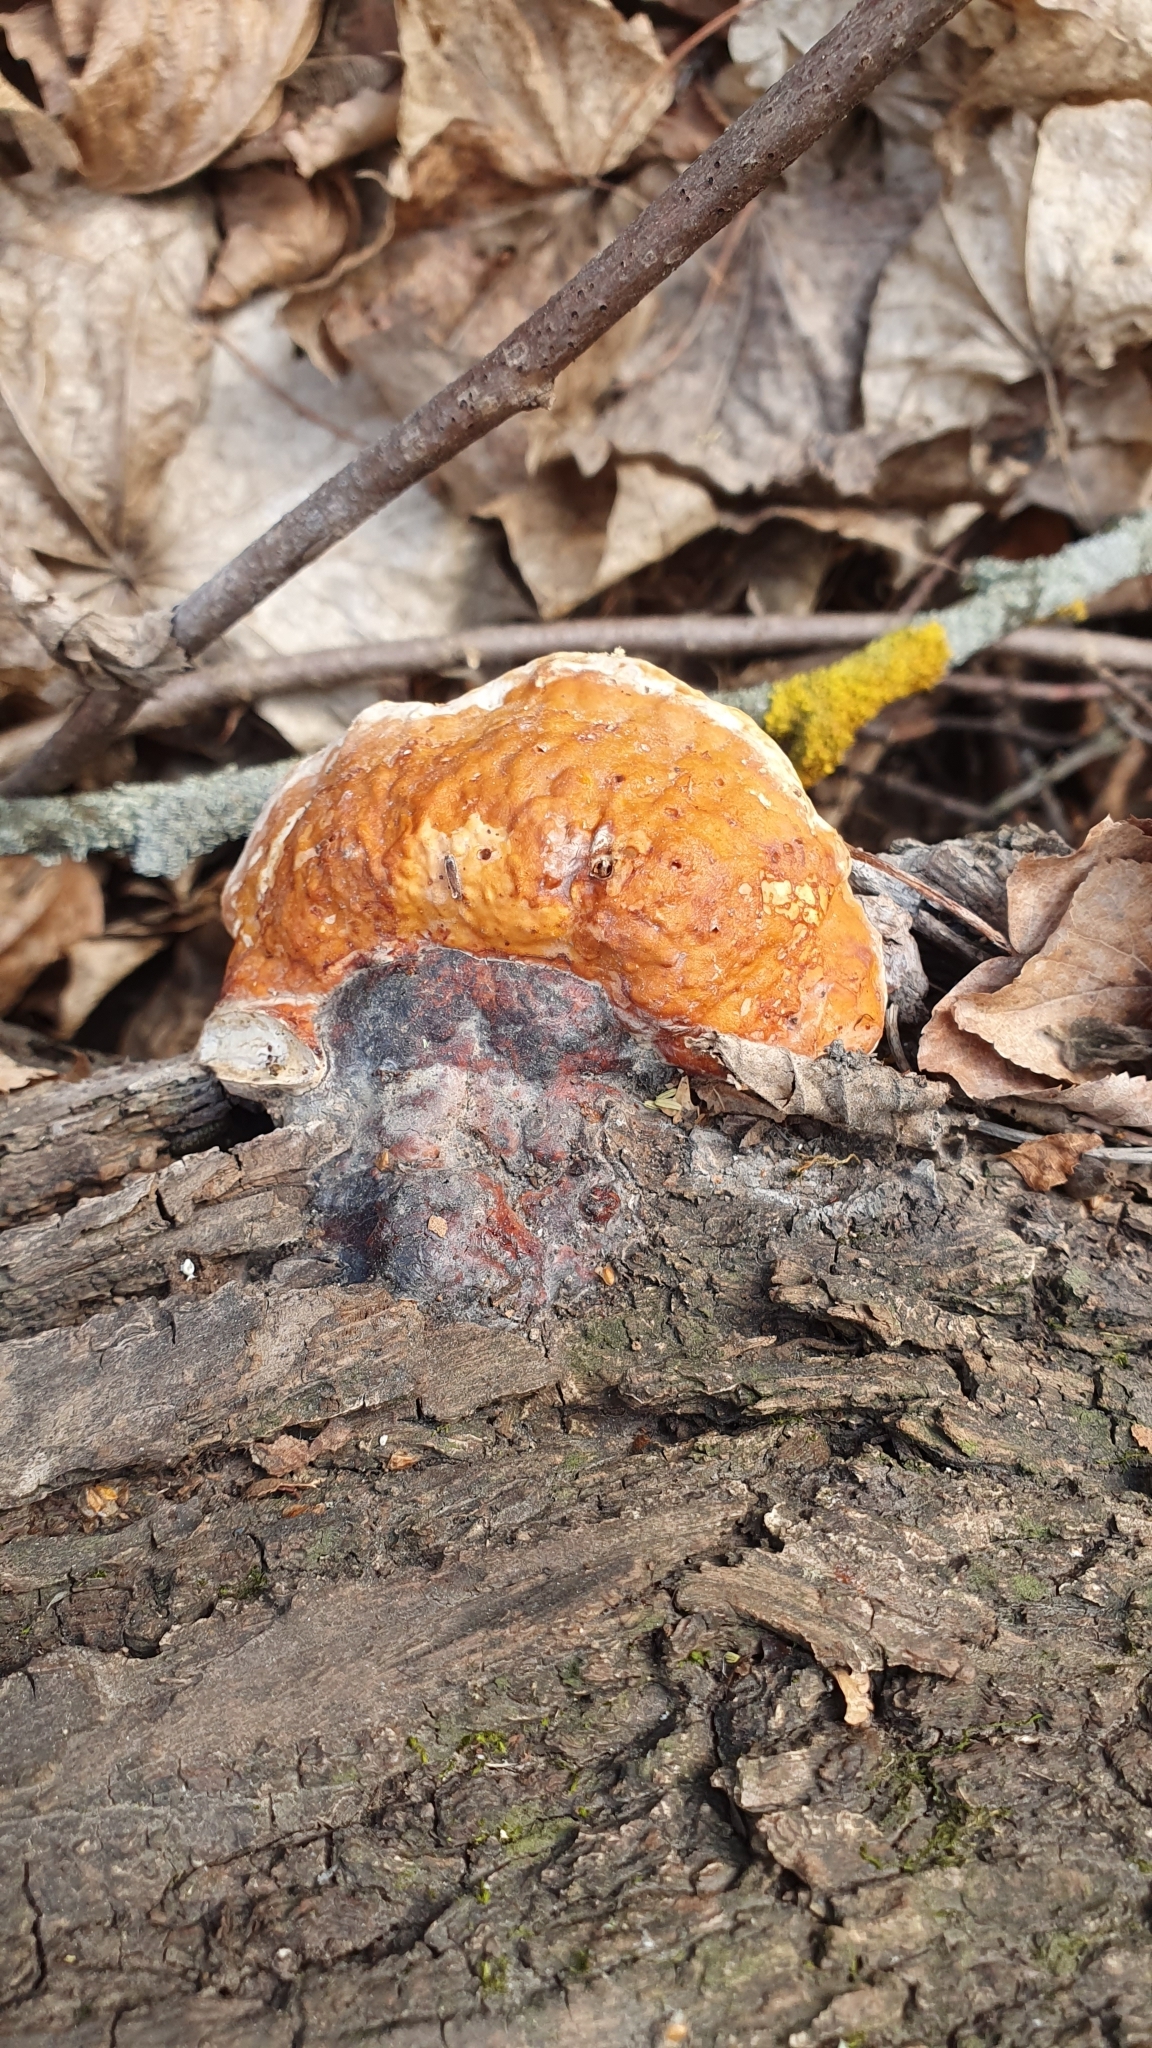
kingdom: Fungi
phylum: Basidiomycota
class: Agaricomycetes
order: Polyporales
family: Fomitopsidaceae
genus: Fomitopsis
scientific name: Fomitopsis pinicola
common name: Red-belted bracket
